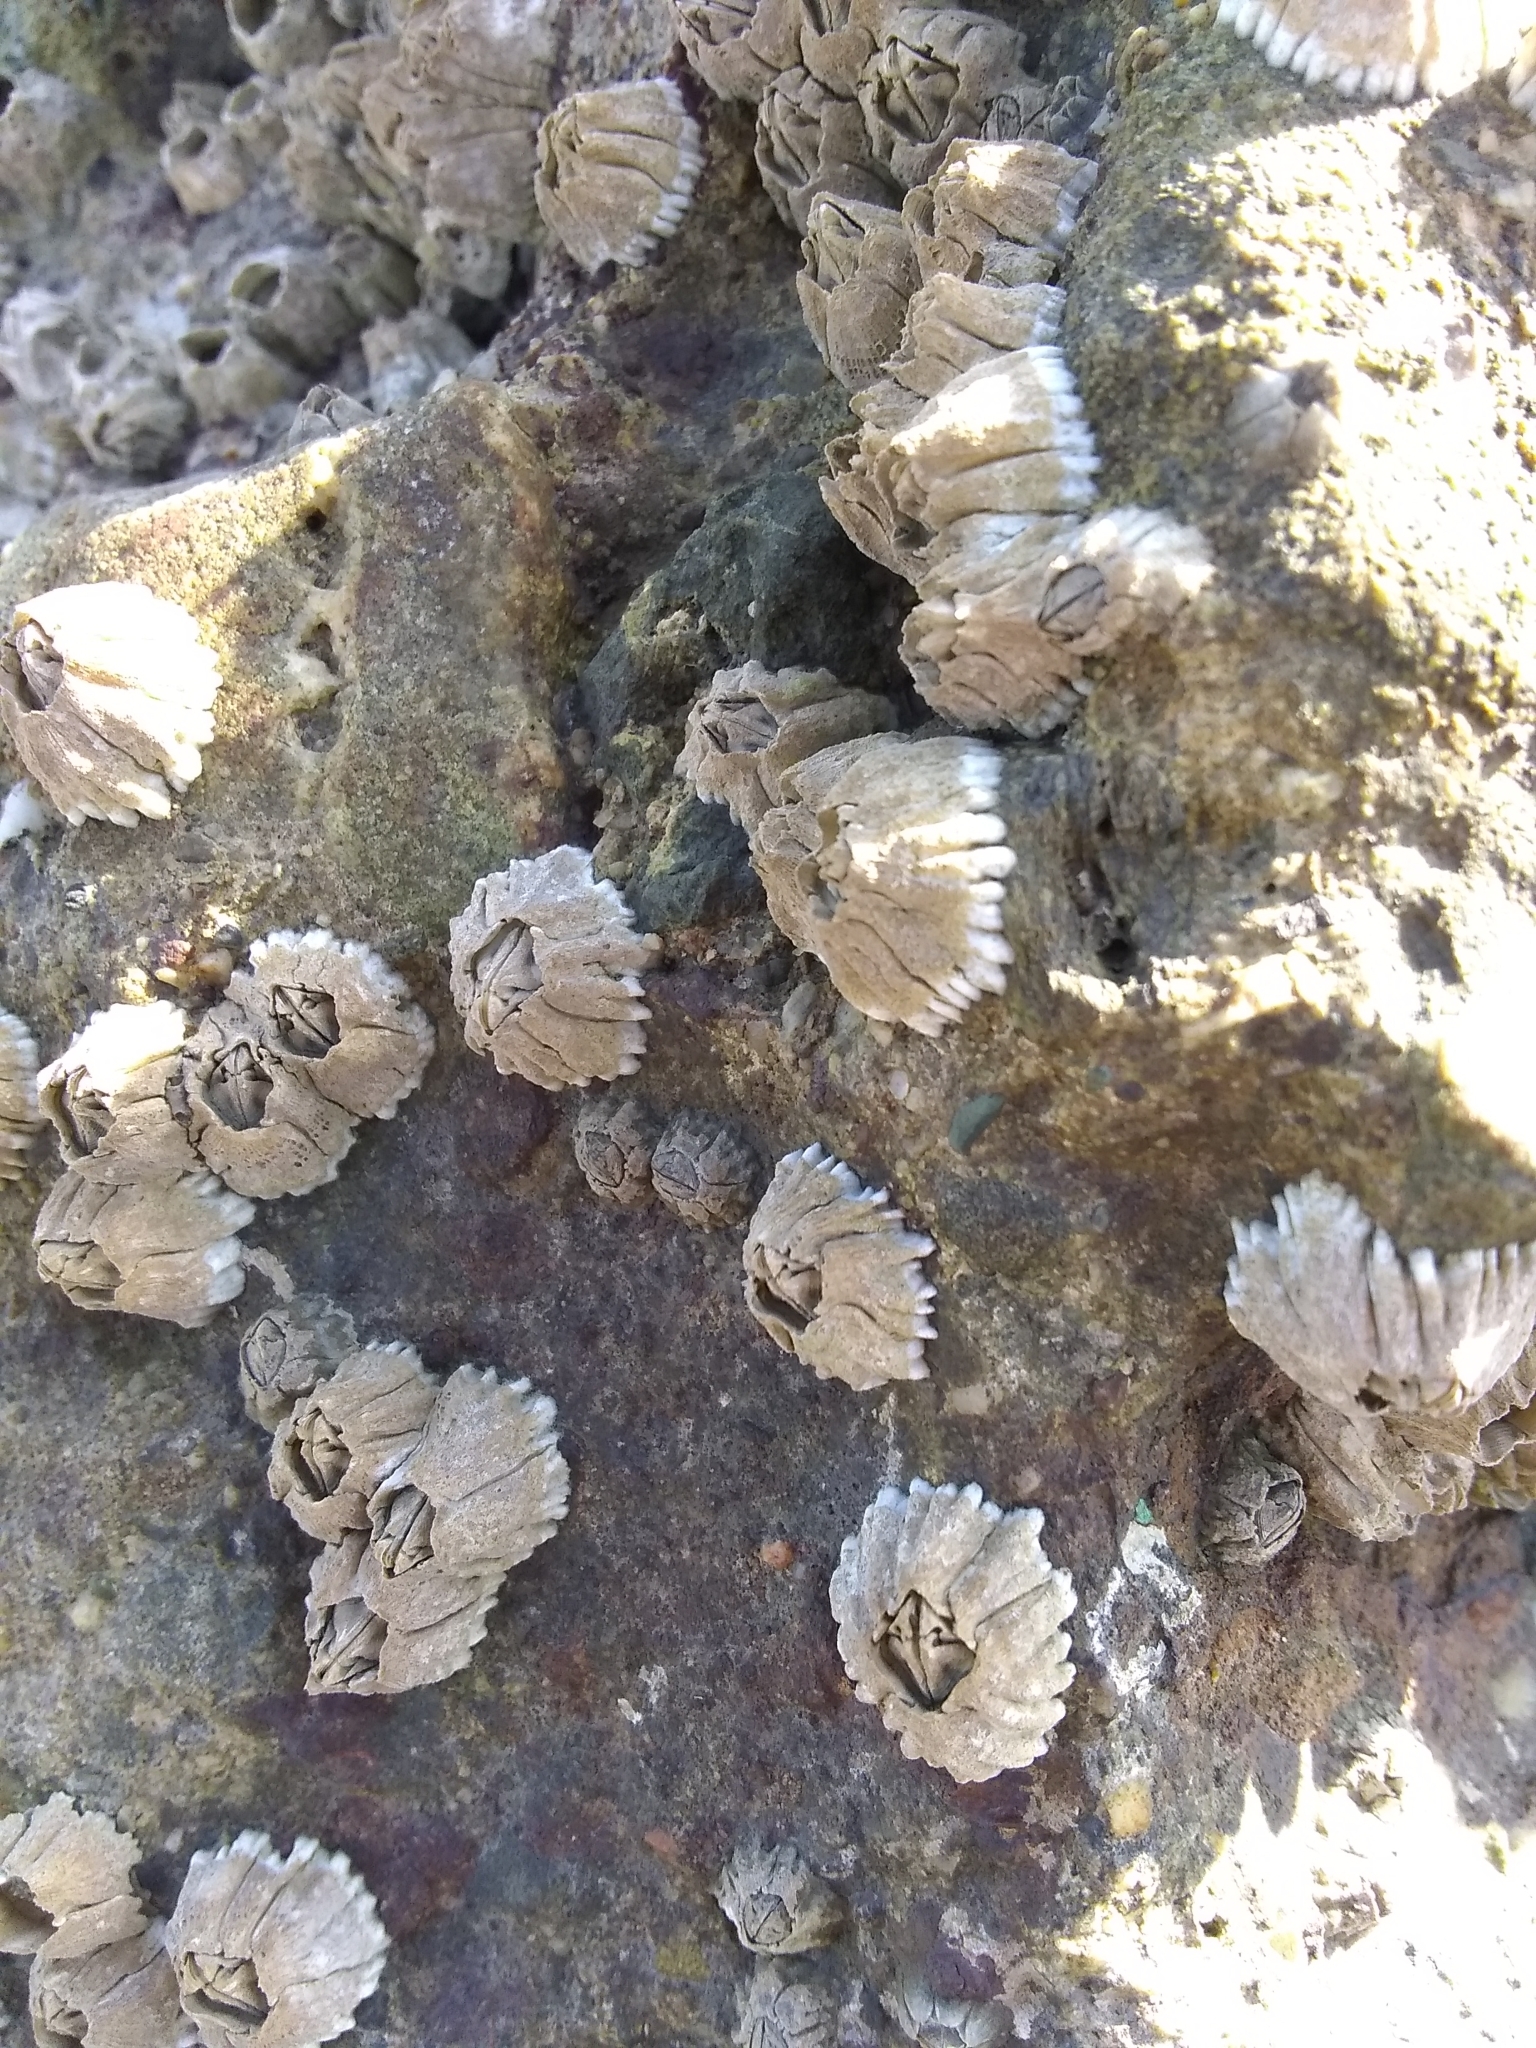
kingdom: Animalia
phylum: Arthropoda
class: Maxillopoda
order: Sessilia
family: Balanidae
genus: Balanus
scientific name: Balanus glandula
